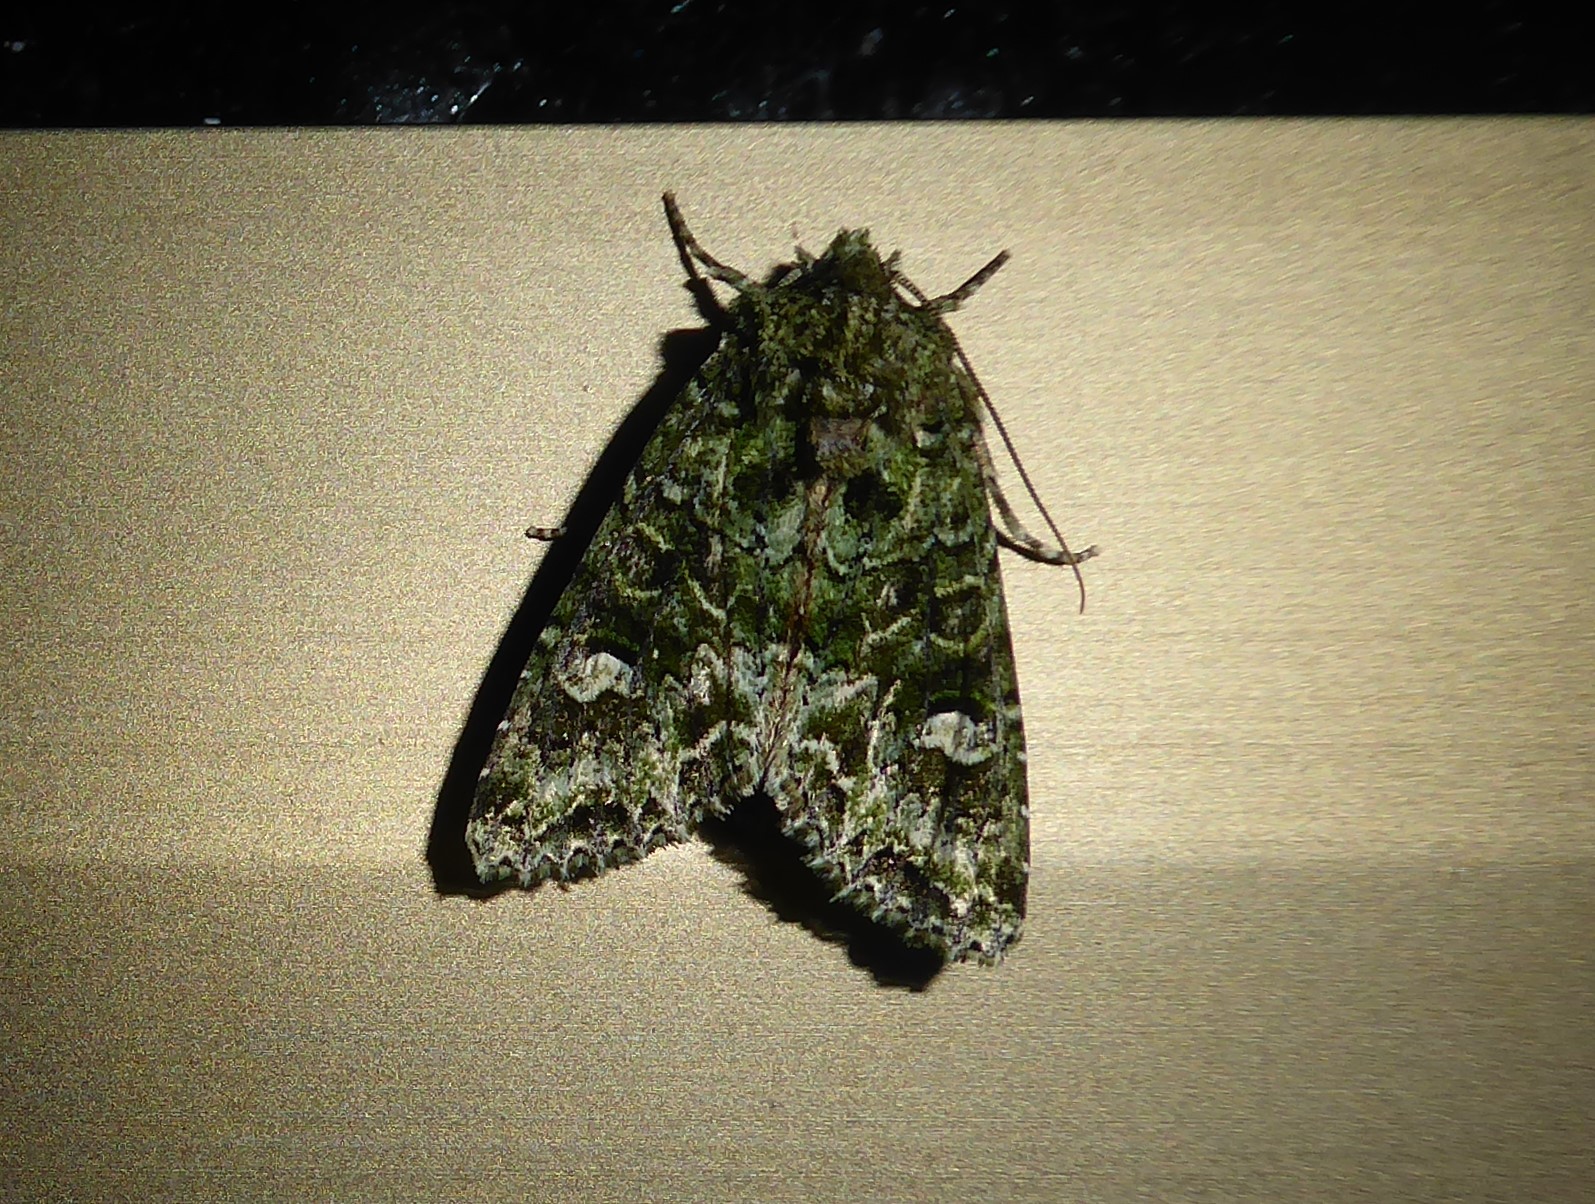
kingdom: Animalia
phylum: Arthropoda
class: Insecta
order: Lepidoptera
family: Noctuidae
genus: Ichneutica
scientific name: Ichneutica
